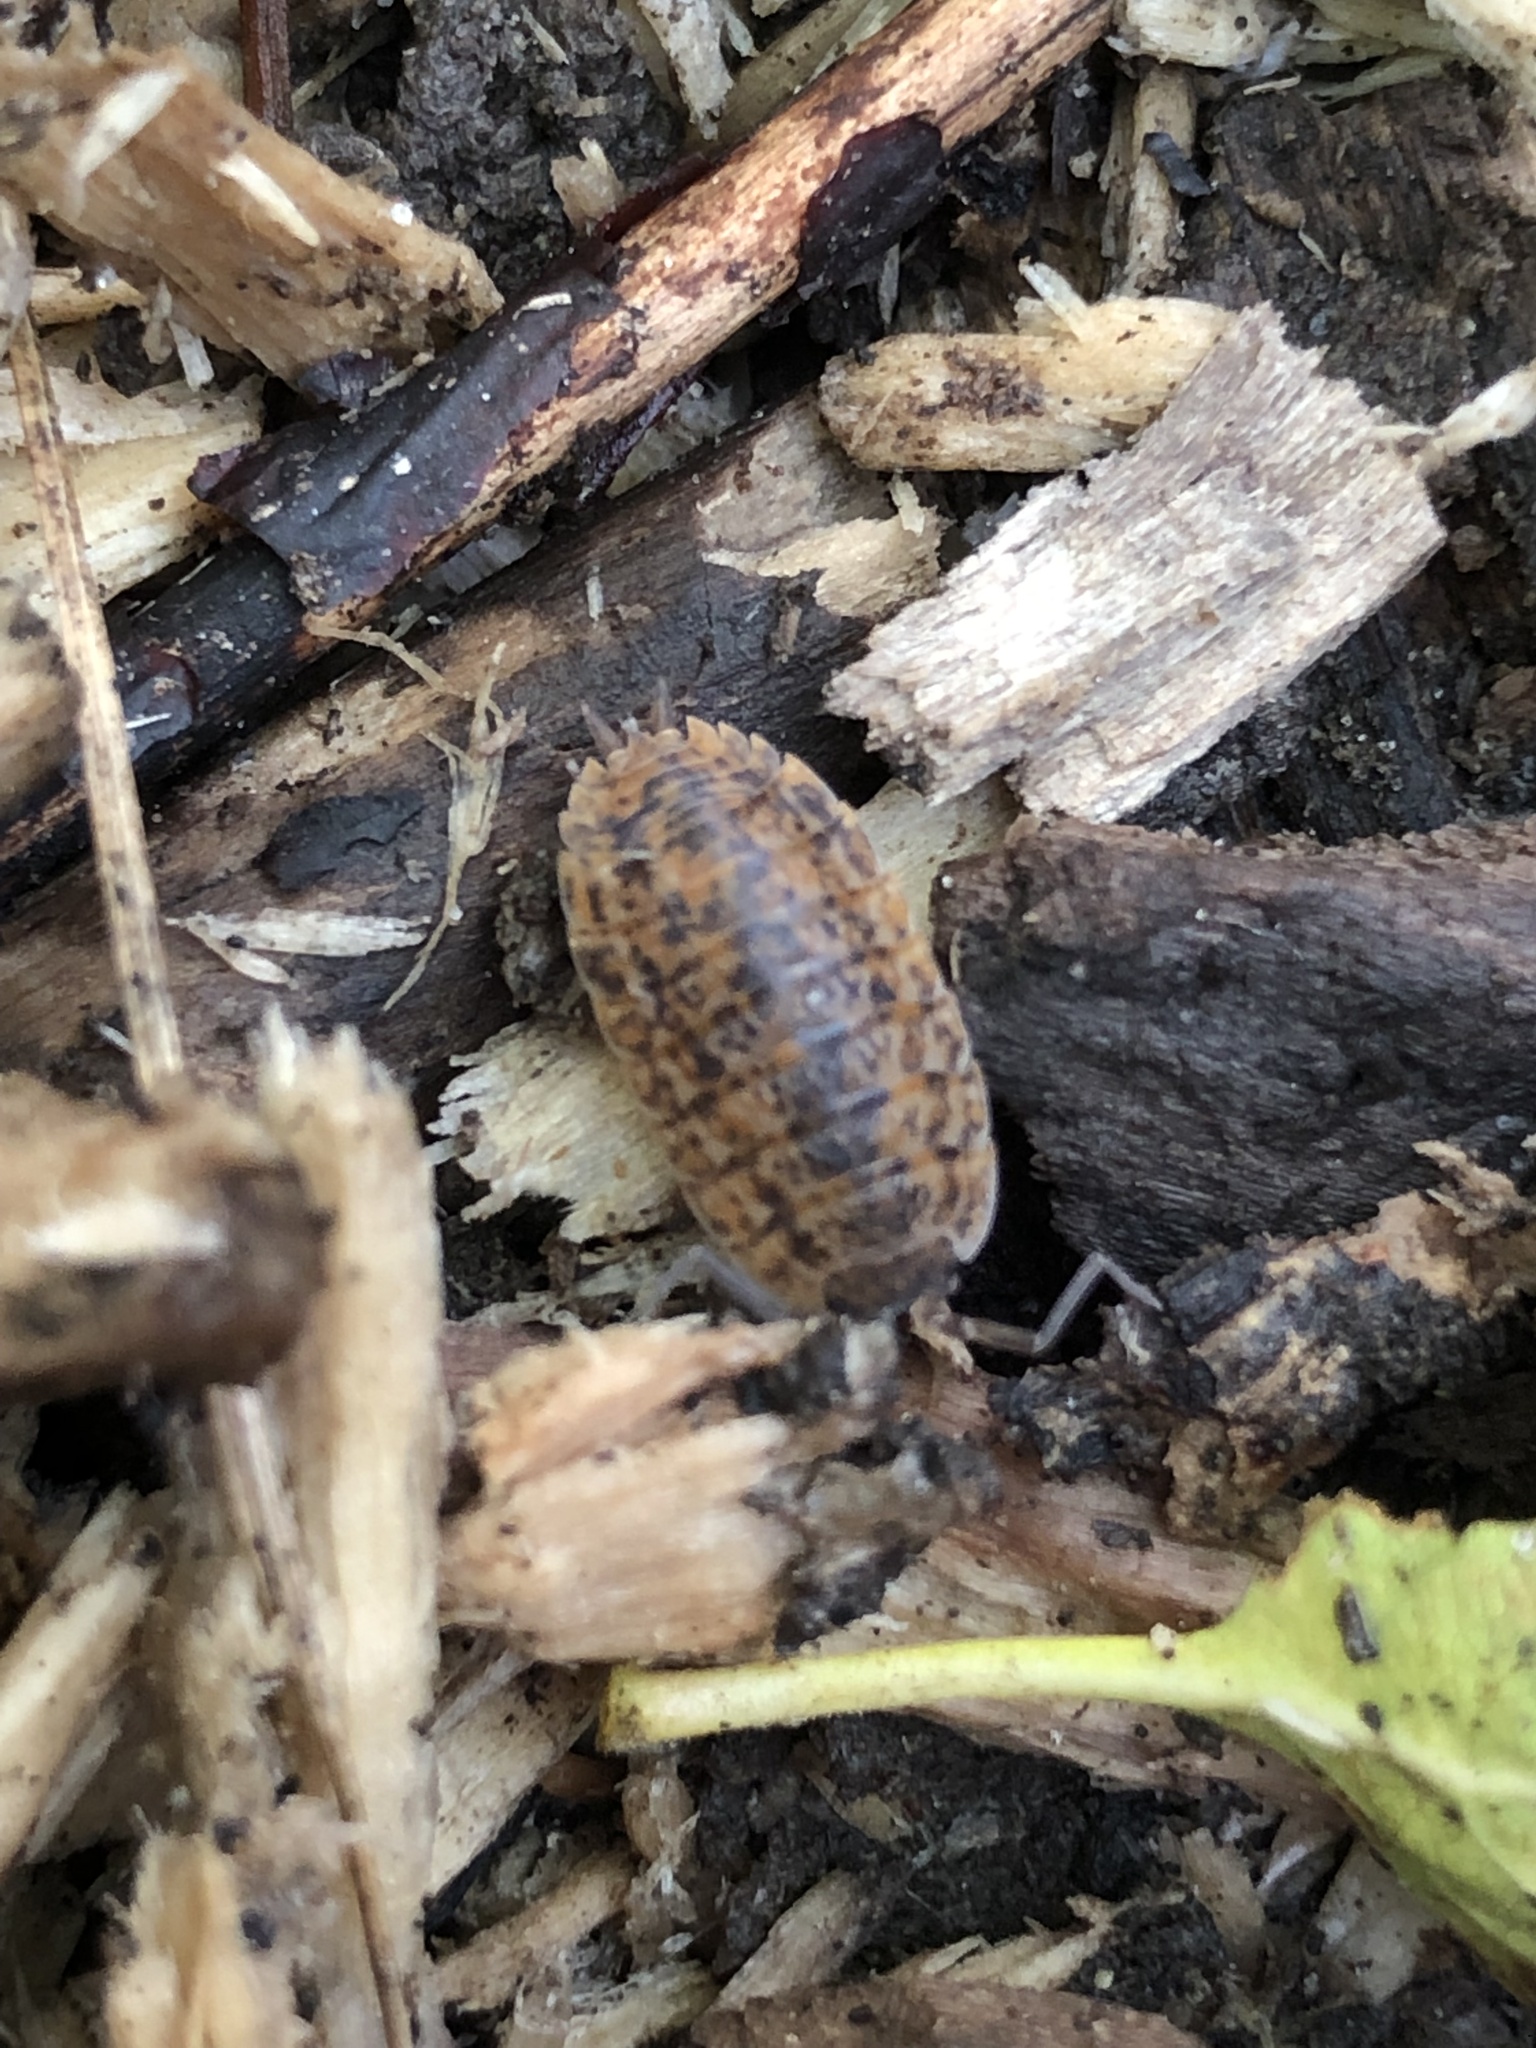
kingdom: Animalia
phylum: Arthropoda
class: Malacostraca
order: Isopoda
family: Trachelipodidae
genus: Trachelipus
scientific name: Trachelipus rathkii
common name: Isopod
